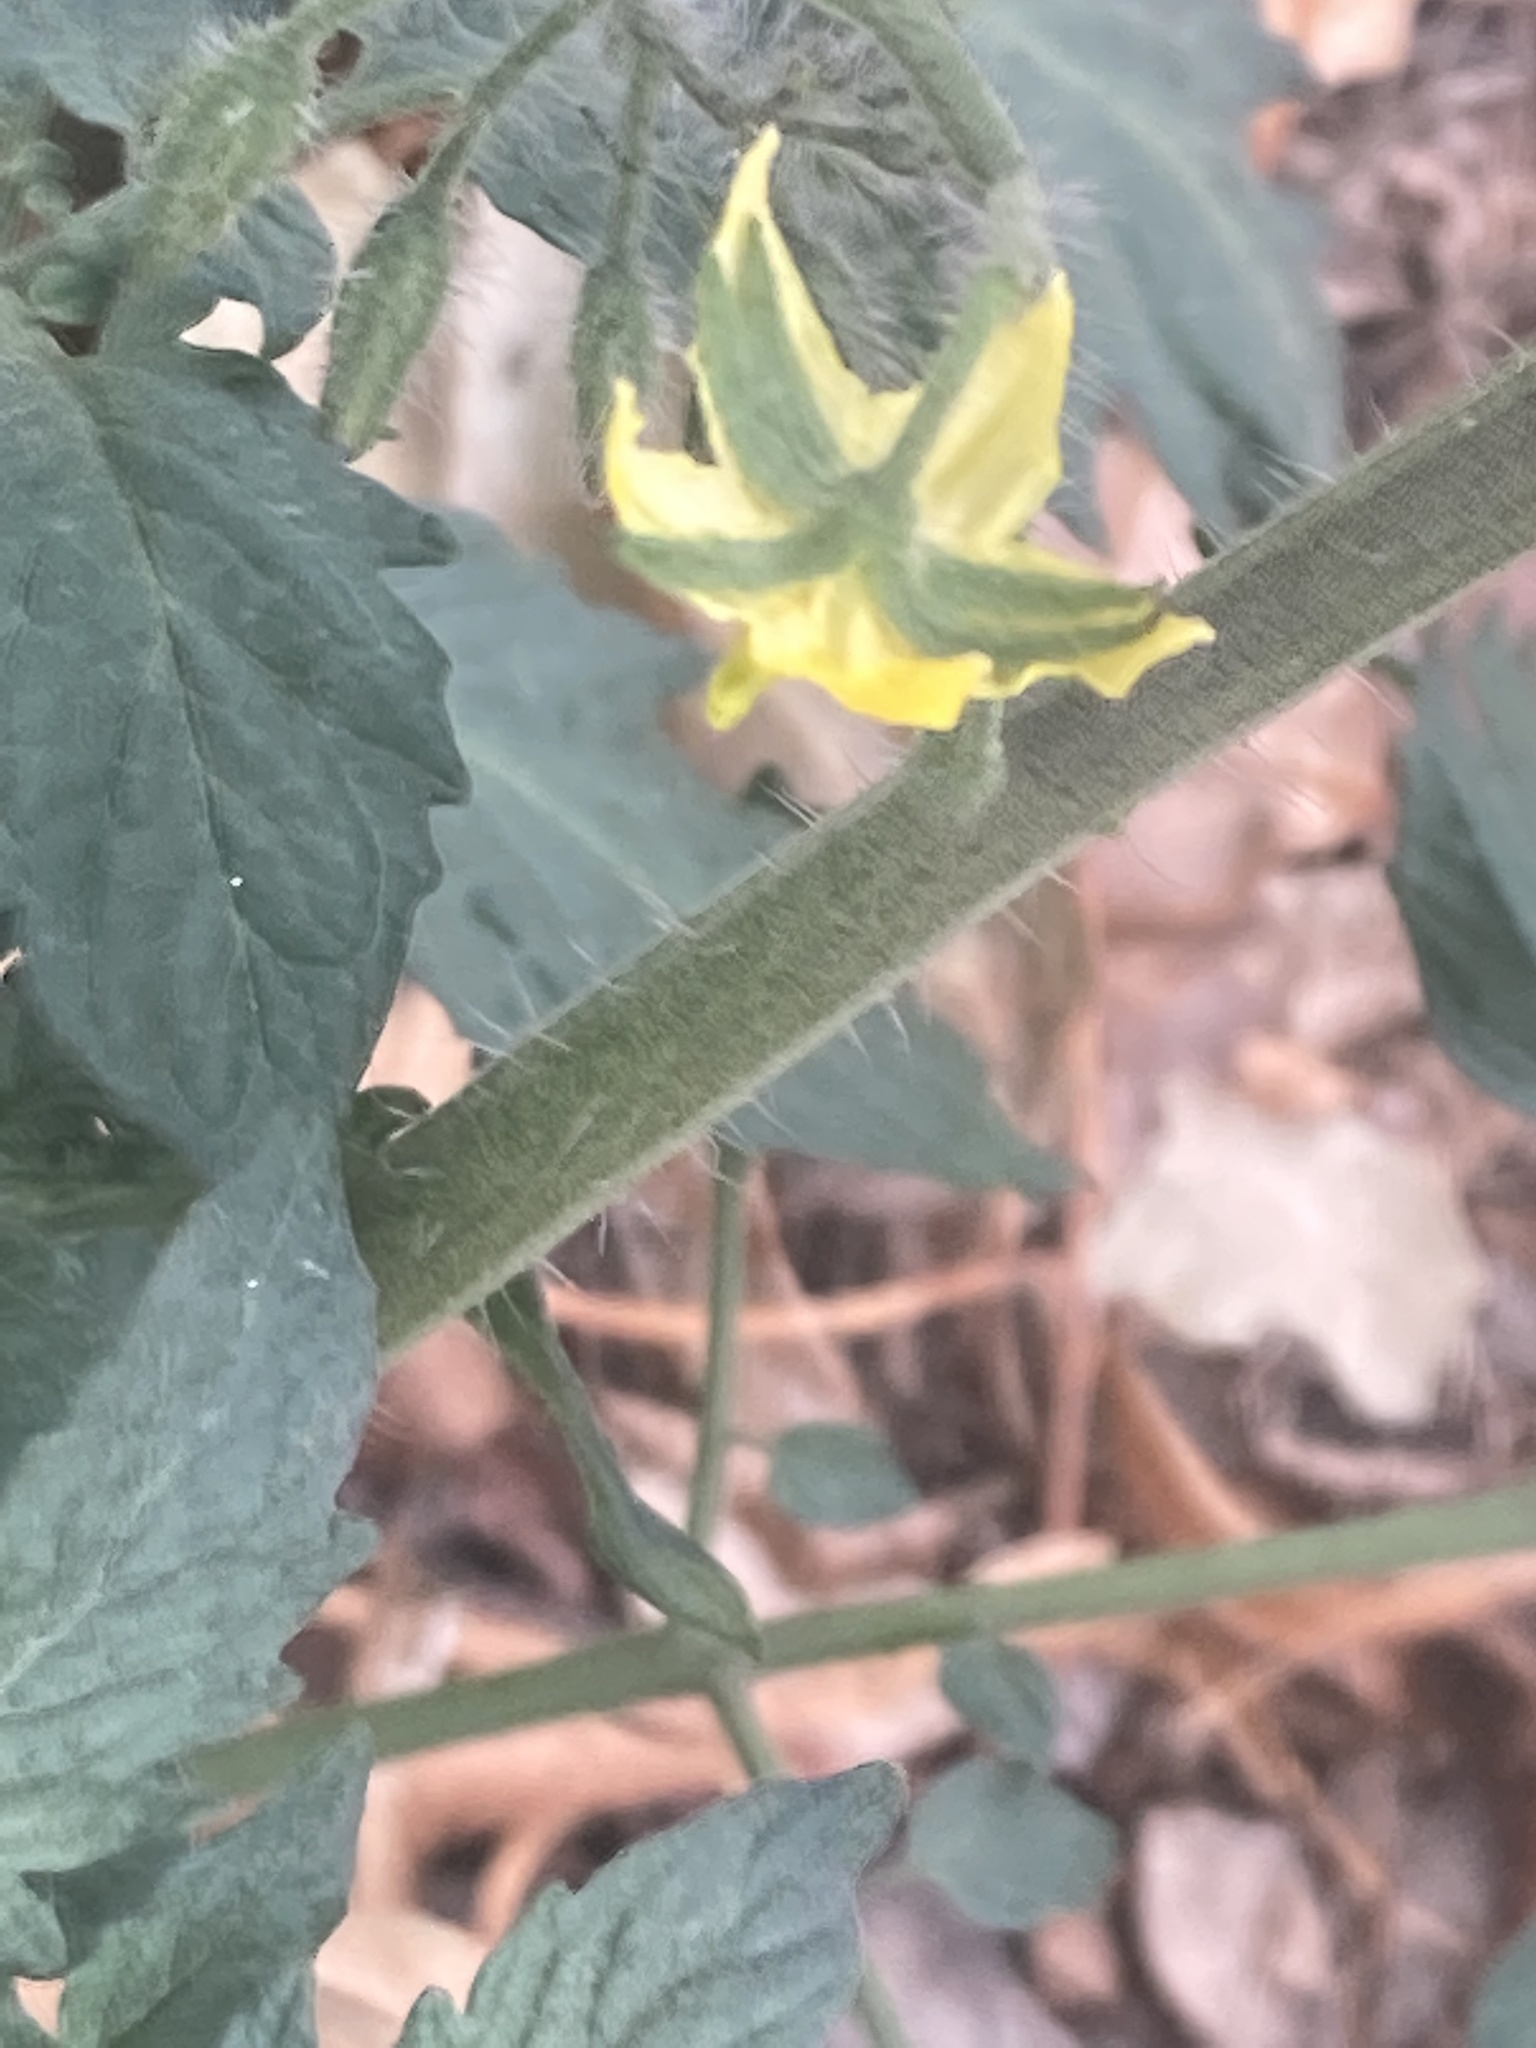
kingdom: Plantae
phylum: Tracheophyta
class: Magnoliopsida
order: Solanales
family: Solanaceae
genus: Solanum
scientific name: Solanum lycopersicum
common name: Garden tomato
